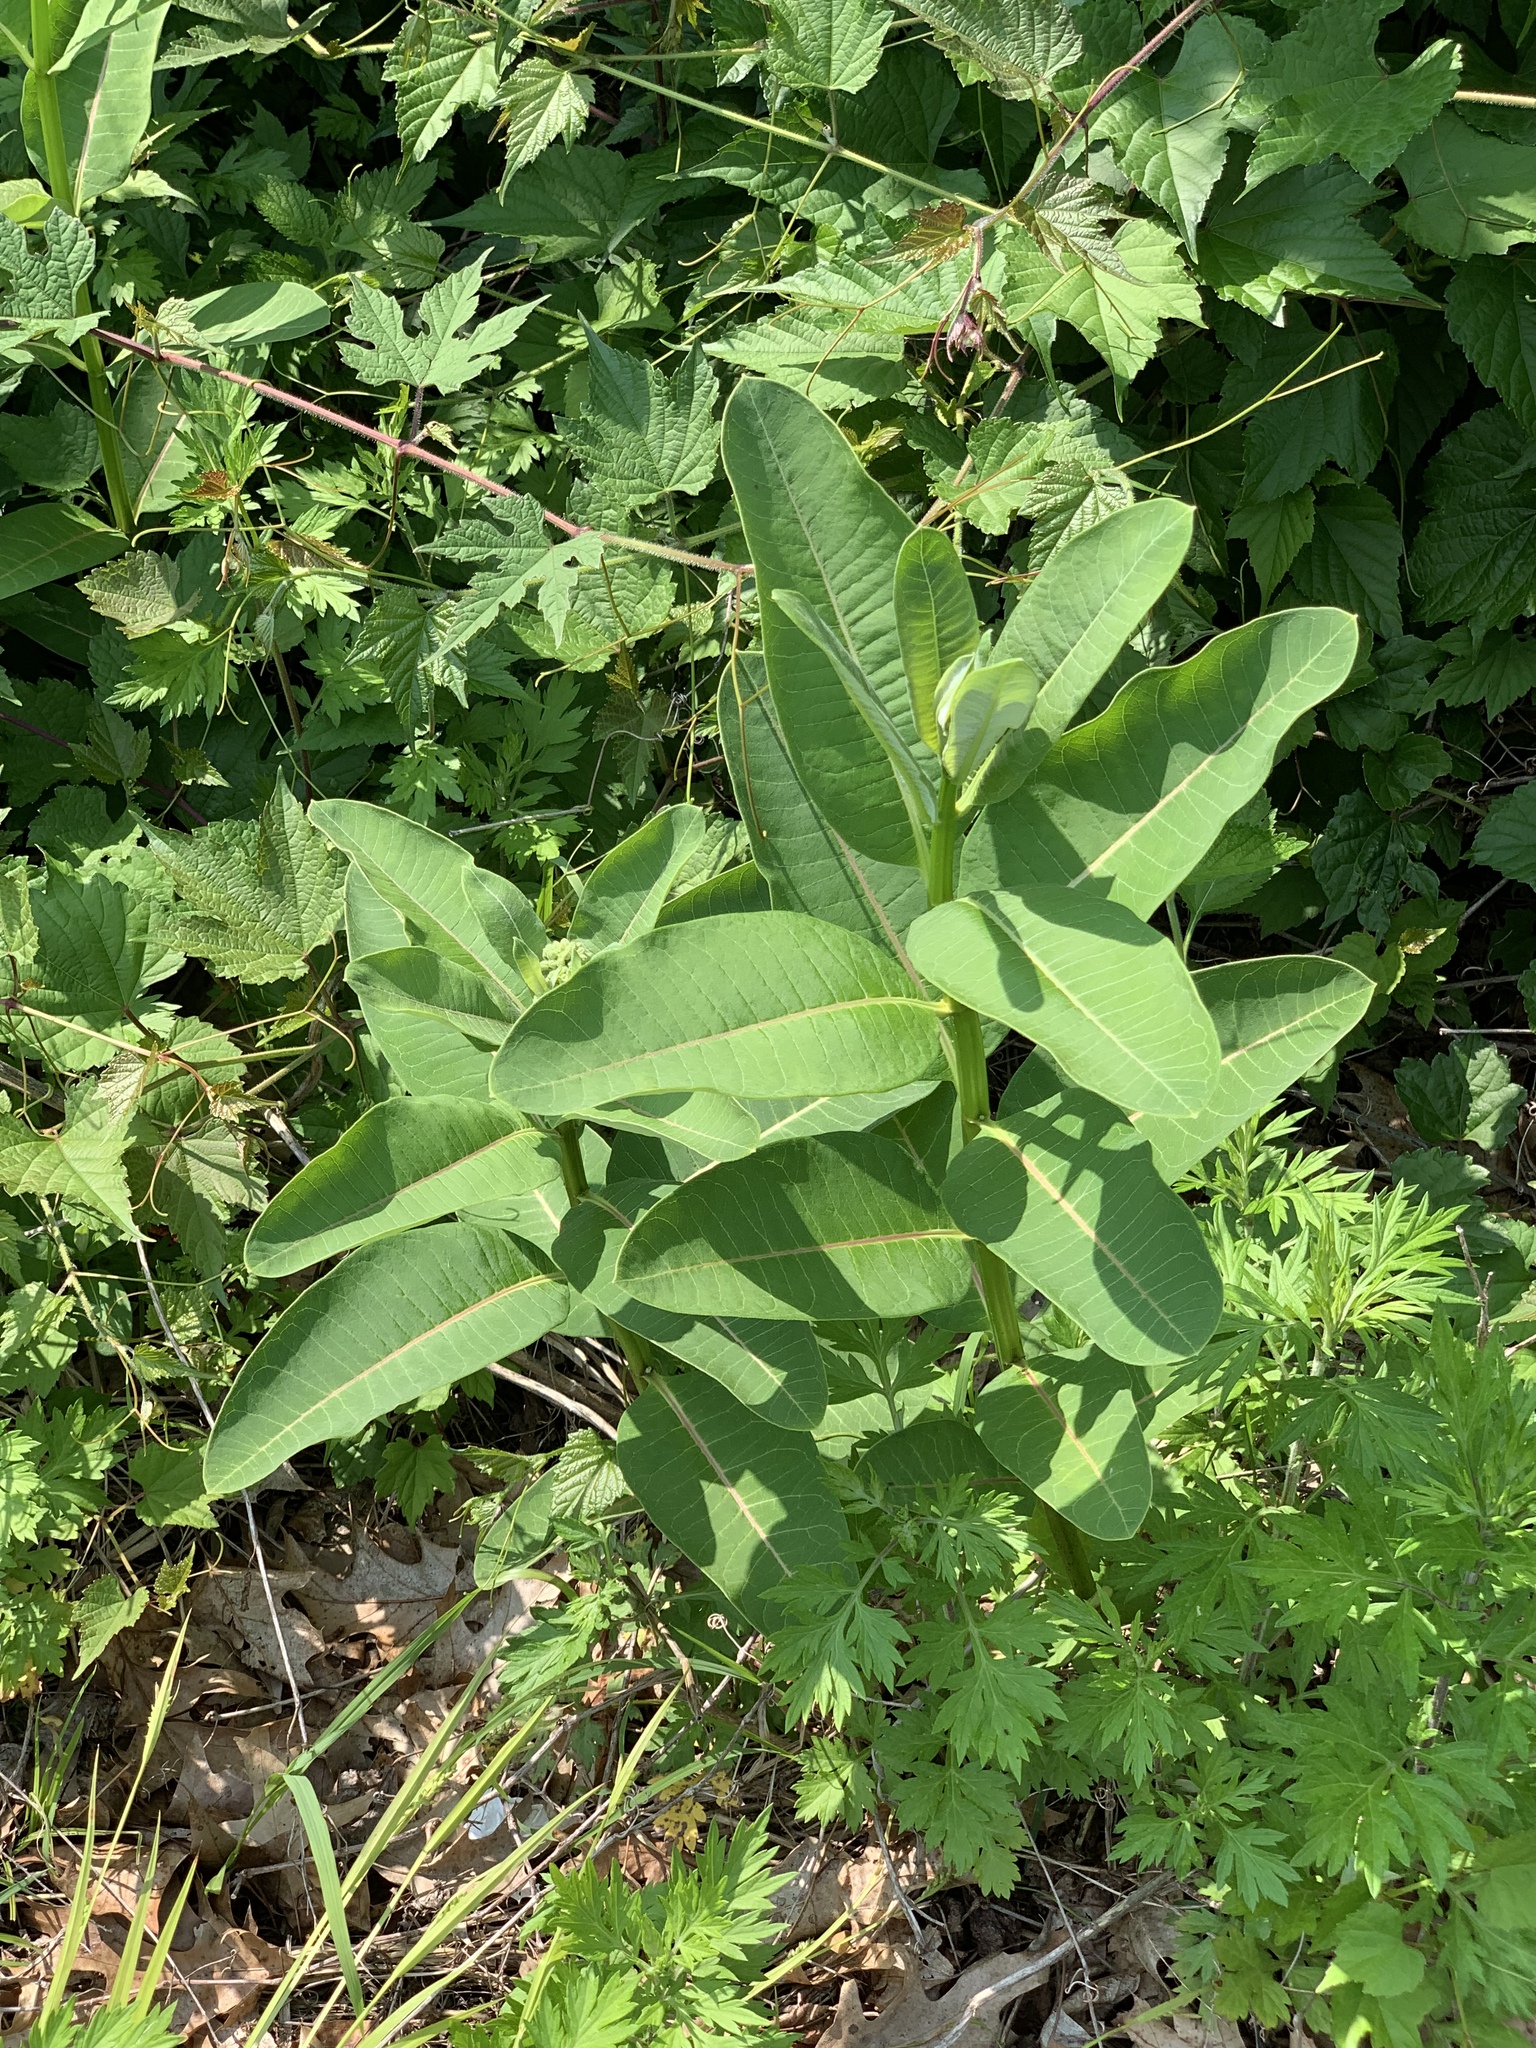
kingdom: Plantae
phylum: Tracheophyta
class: Magnoliopsida
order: Gentianales
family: Apocynaceae
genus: Asclepias
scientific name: Asclepias syriaca
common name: Common milkweed
